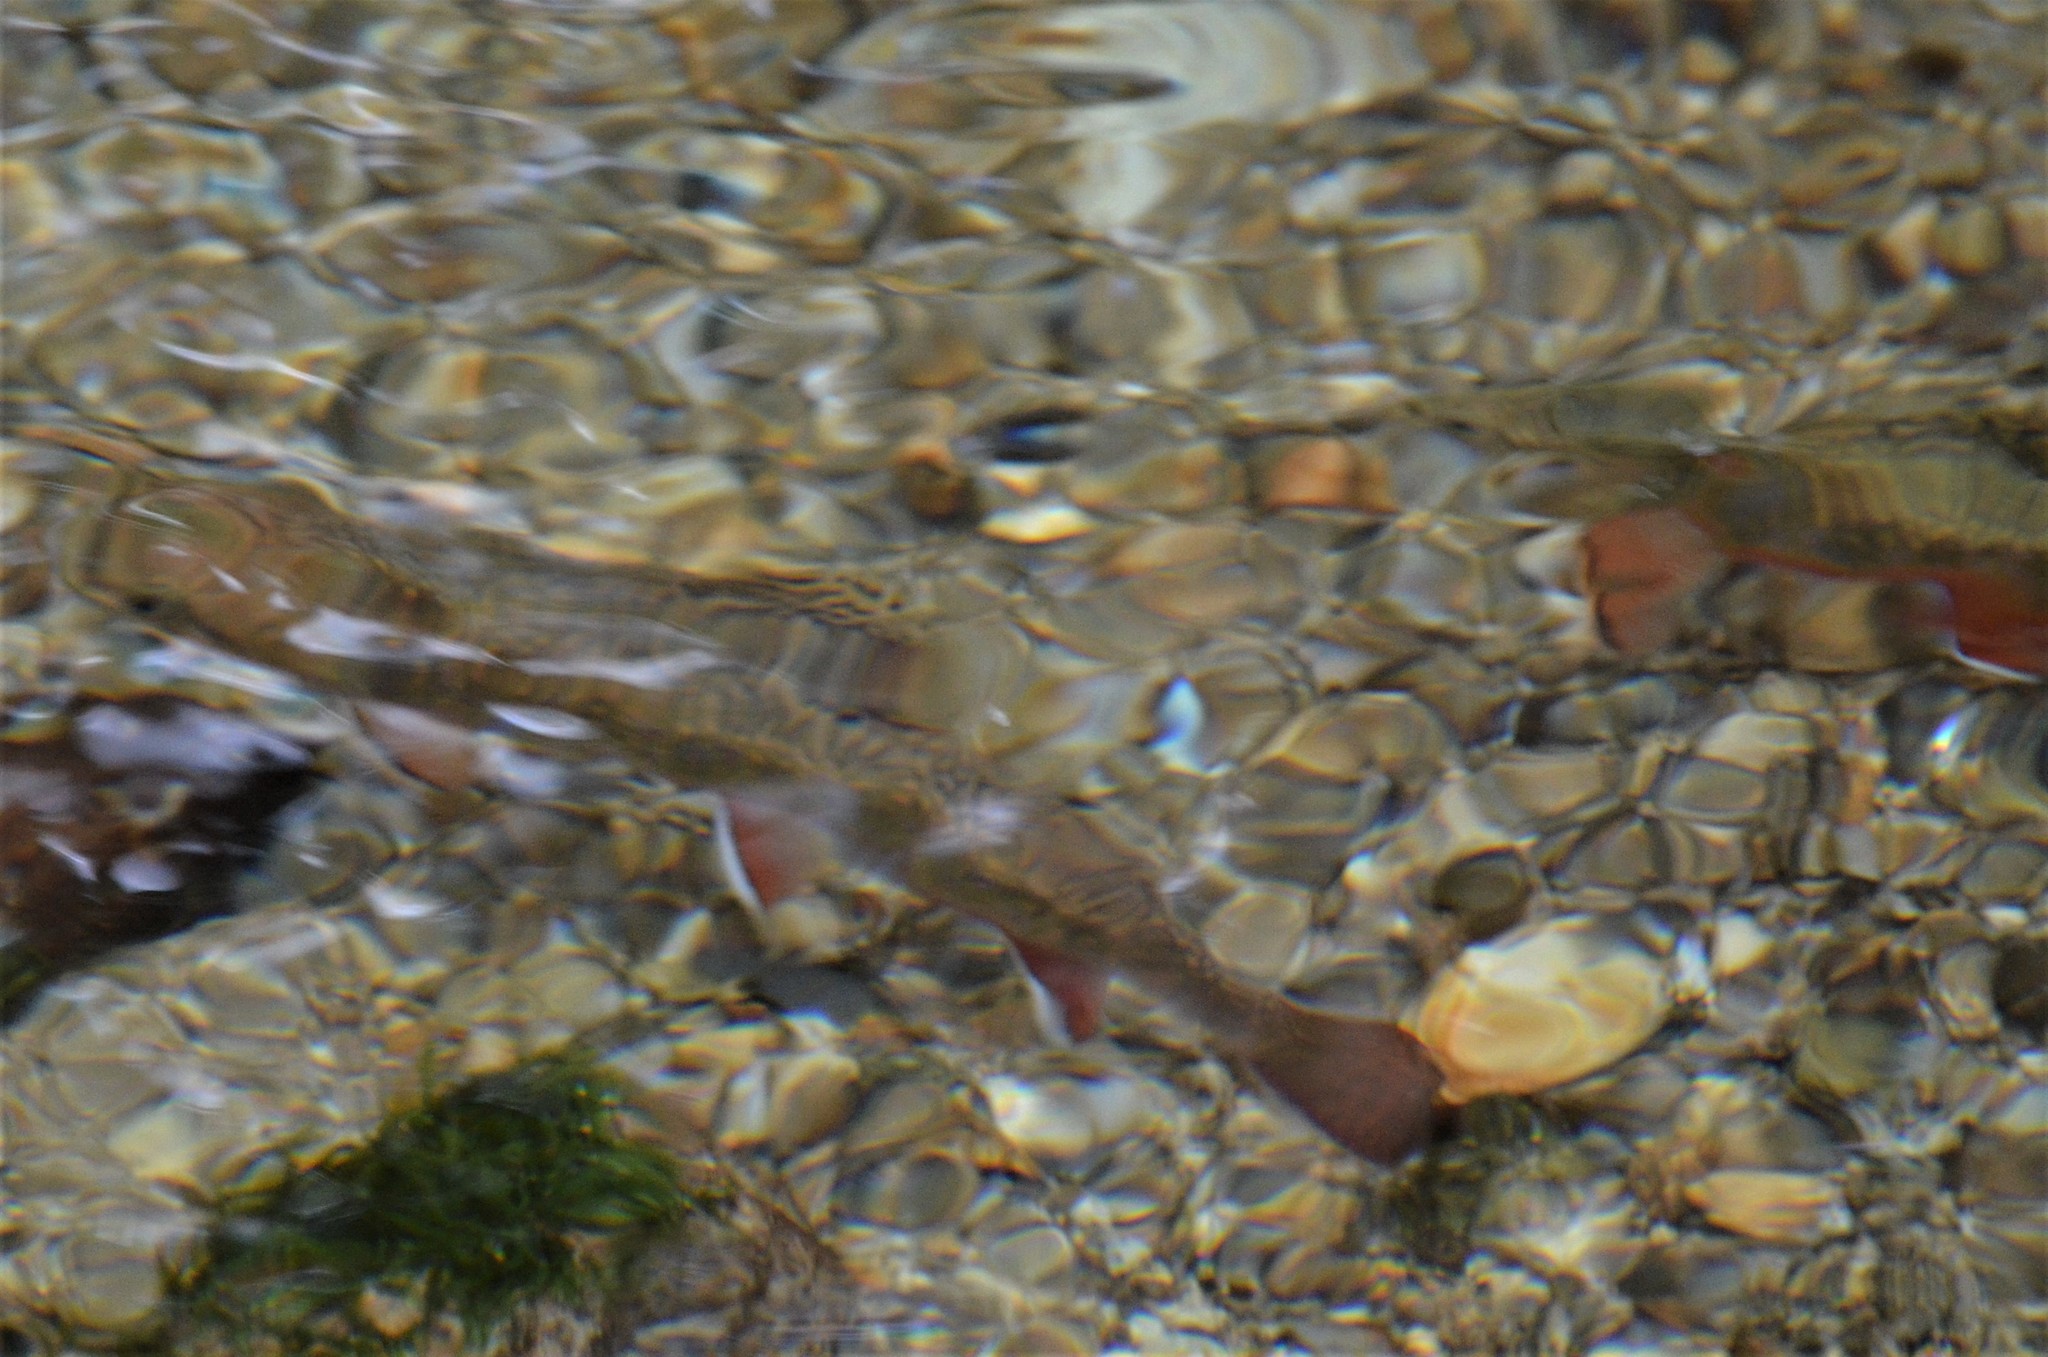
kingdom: Animalia
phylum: Chordata
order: Salmoniformes
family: Salmonidae
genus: Salvelinus
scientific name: Salvelinus fontinalis
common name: Brook trout
